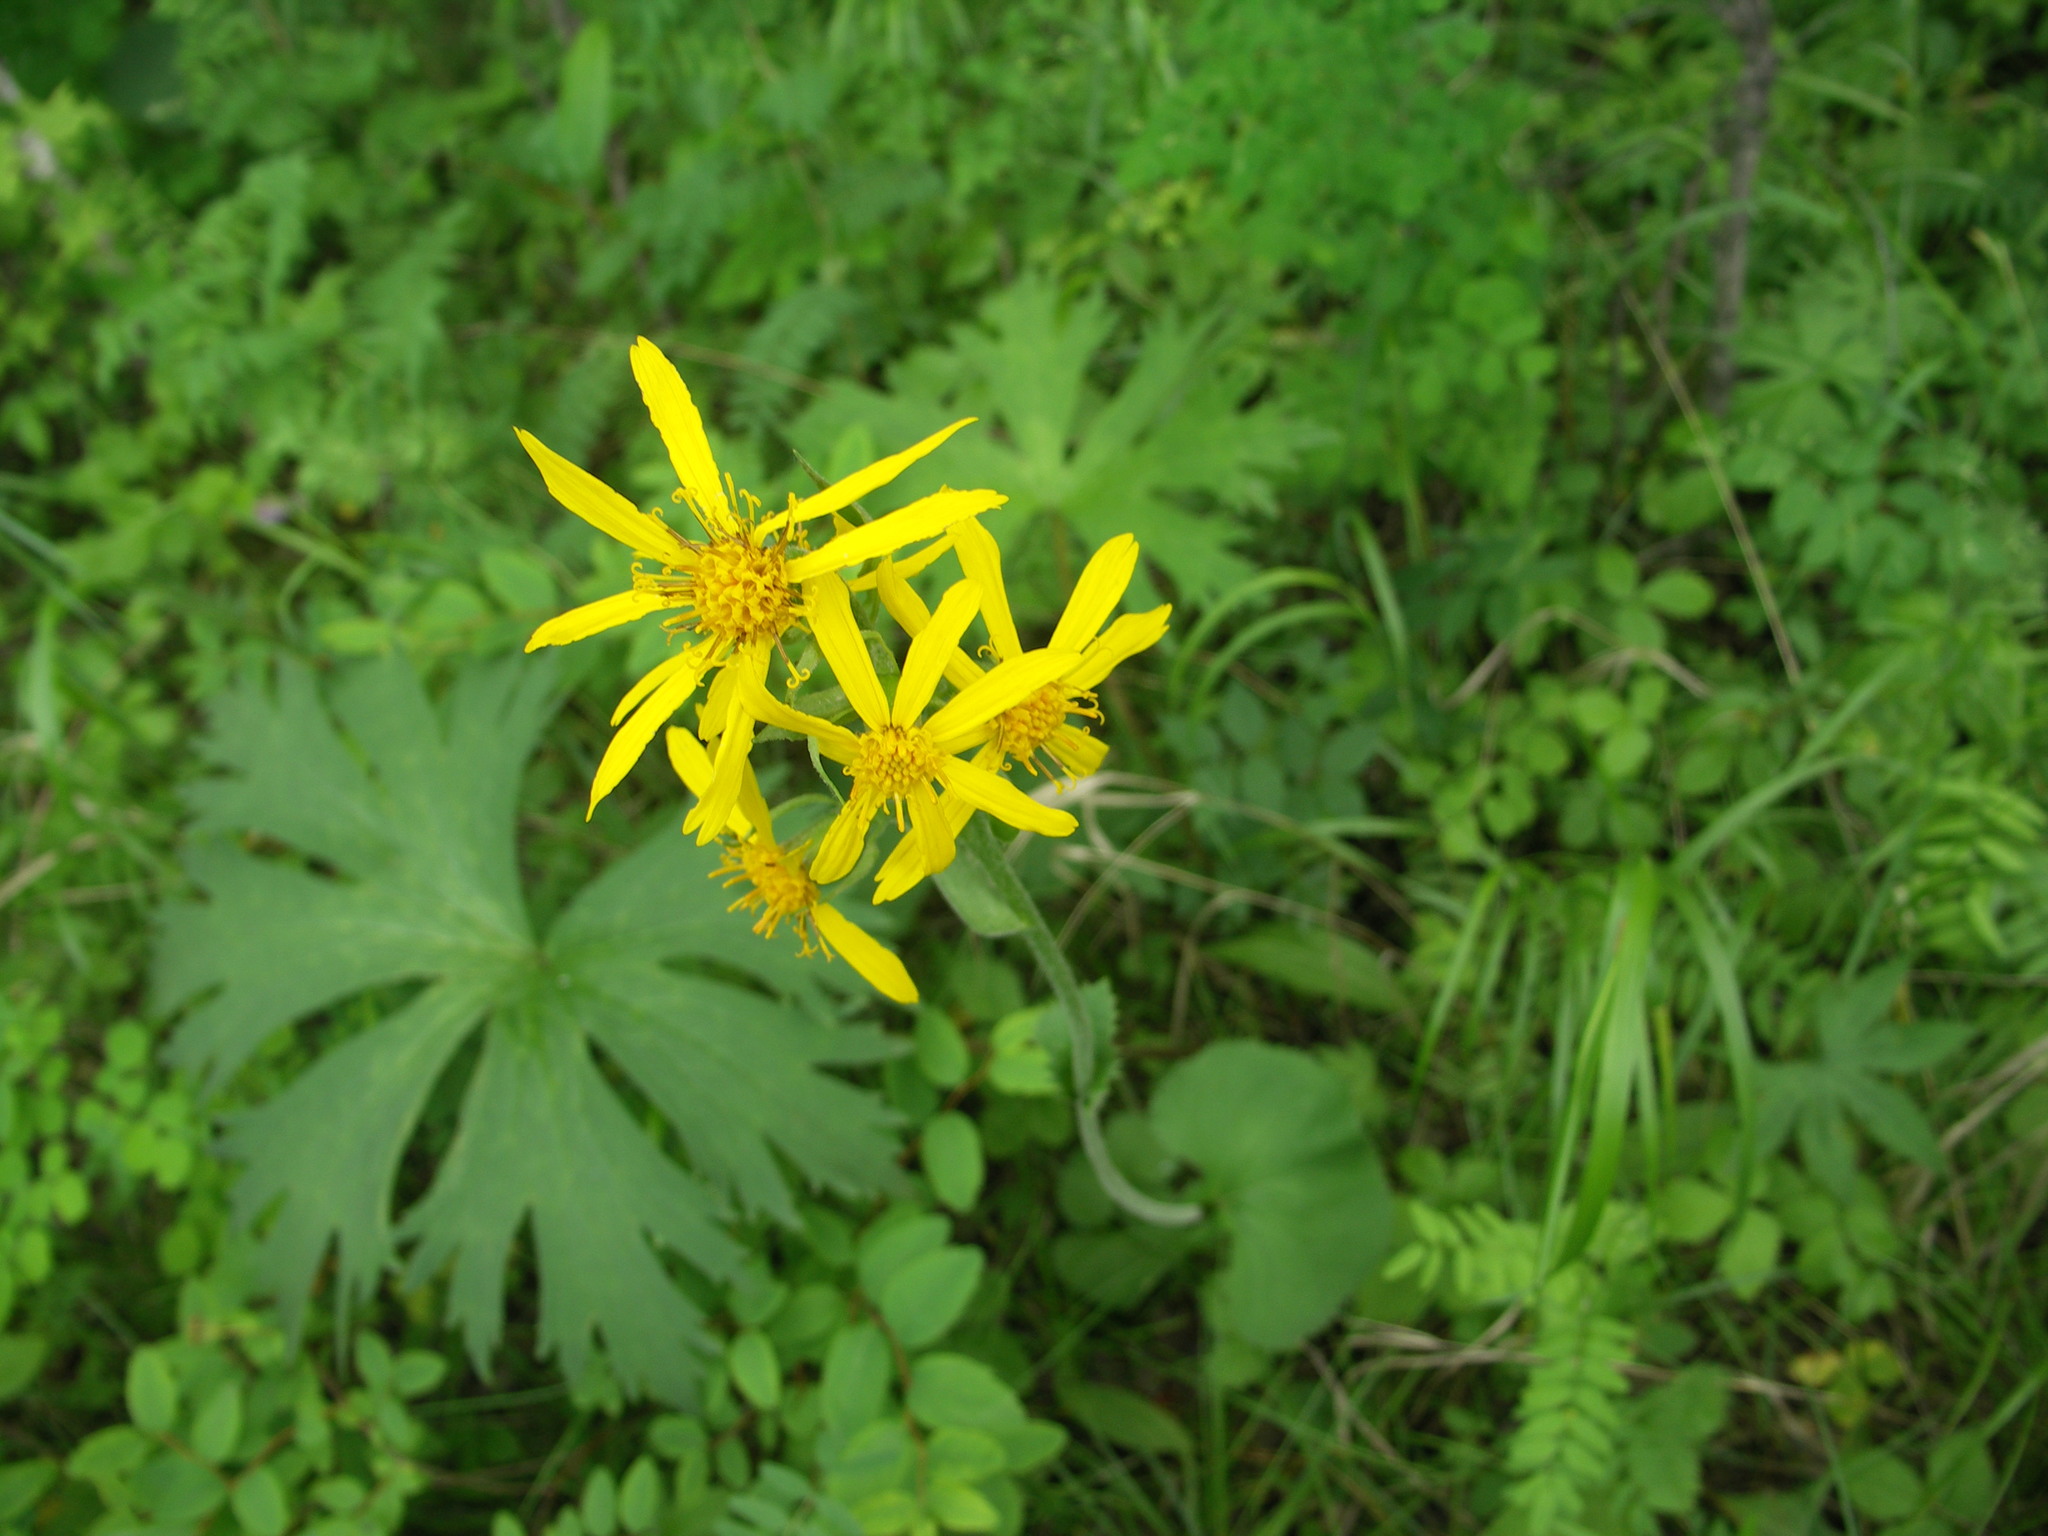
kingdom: Plantae
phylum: Tracheophyta
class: Magnoliopsida
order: Asterales
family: Asteraceae
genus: Ligularia
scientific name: Ligularia fischeri
